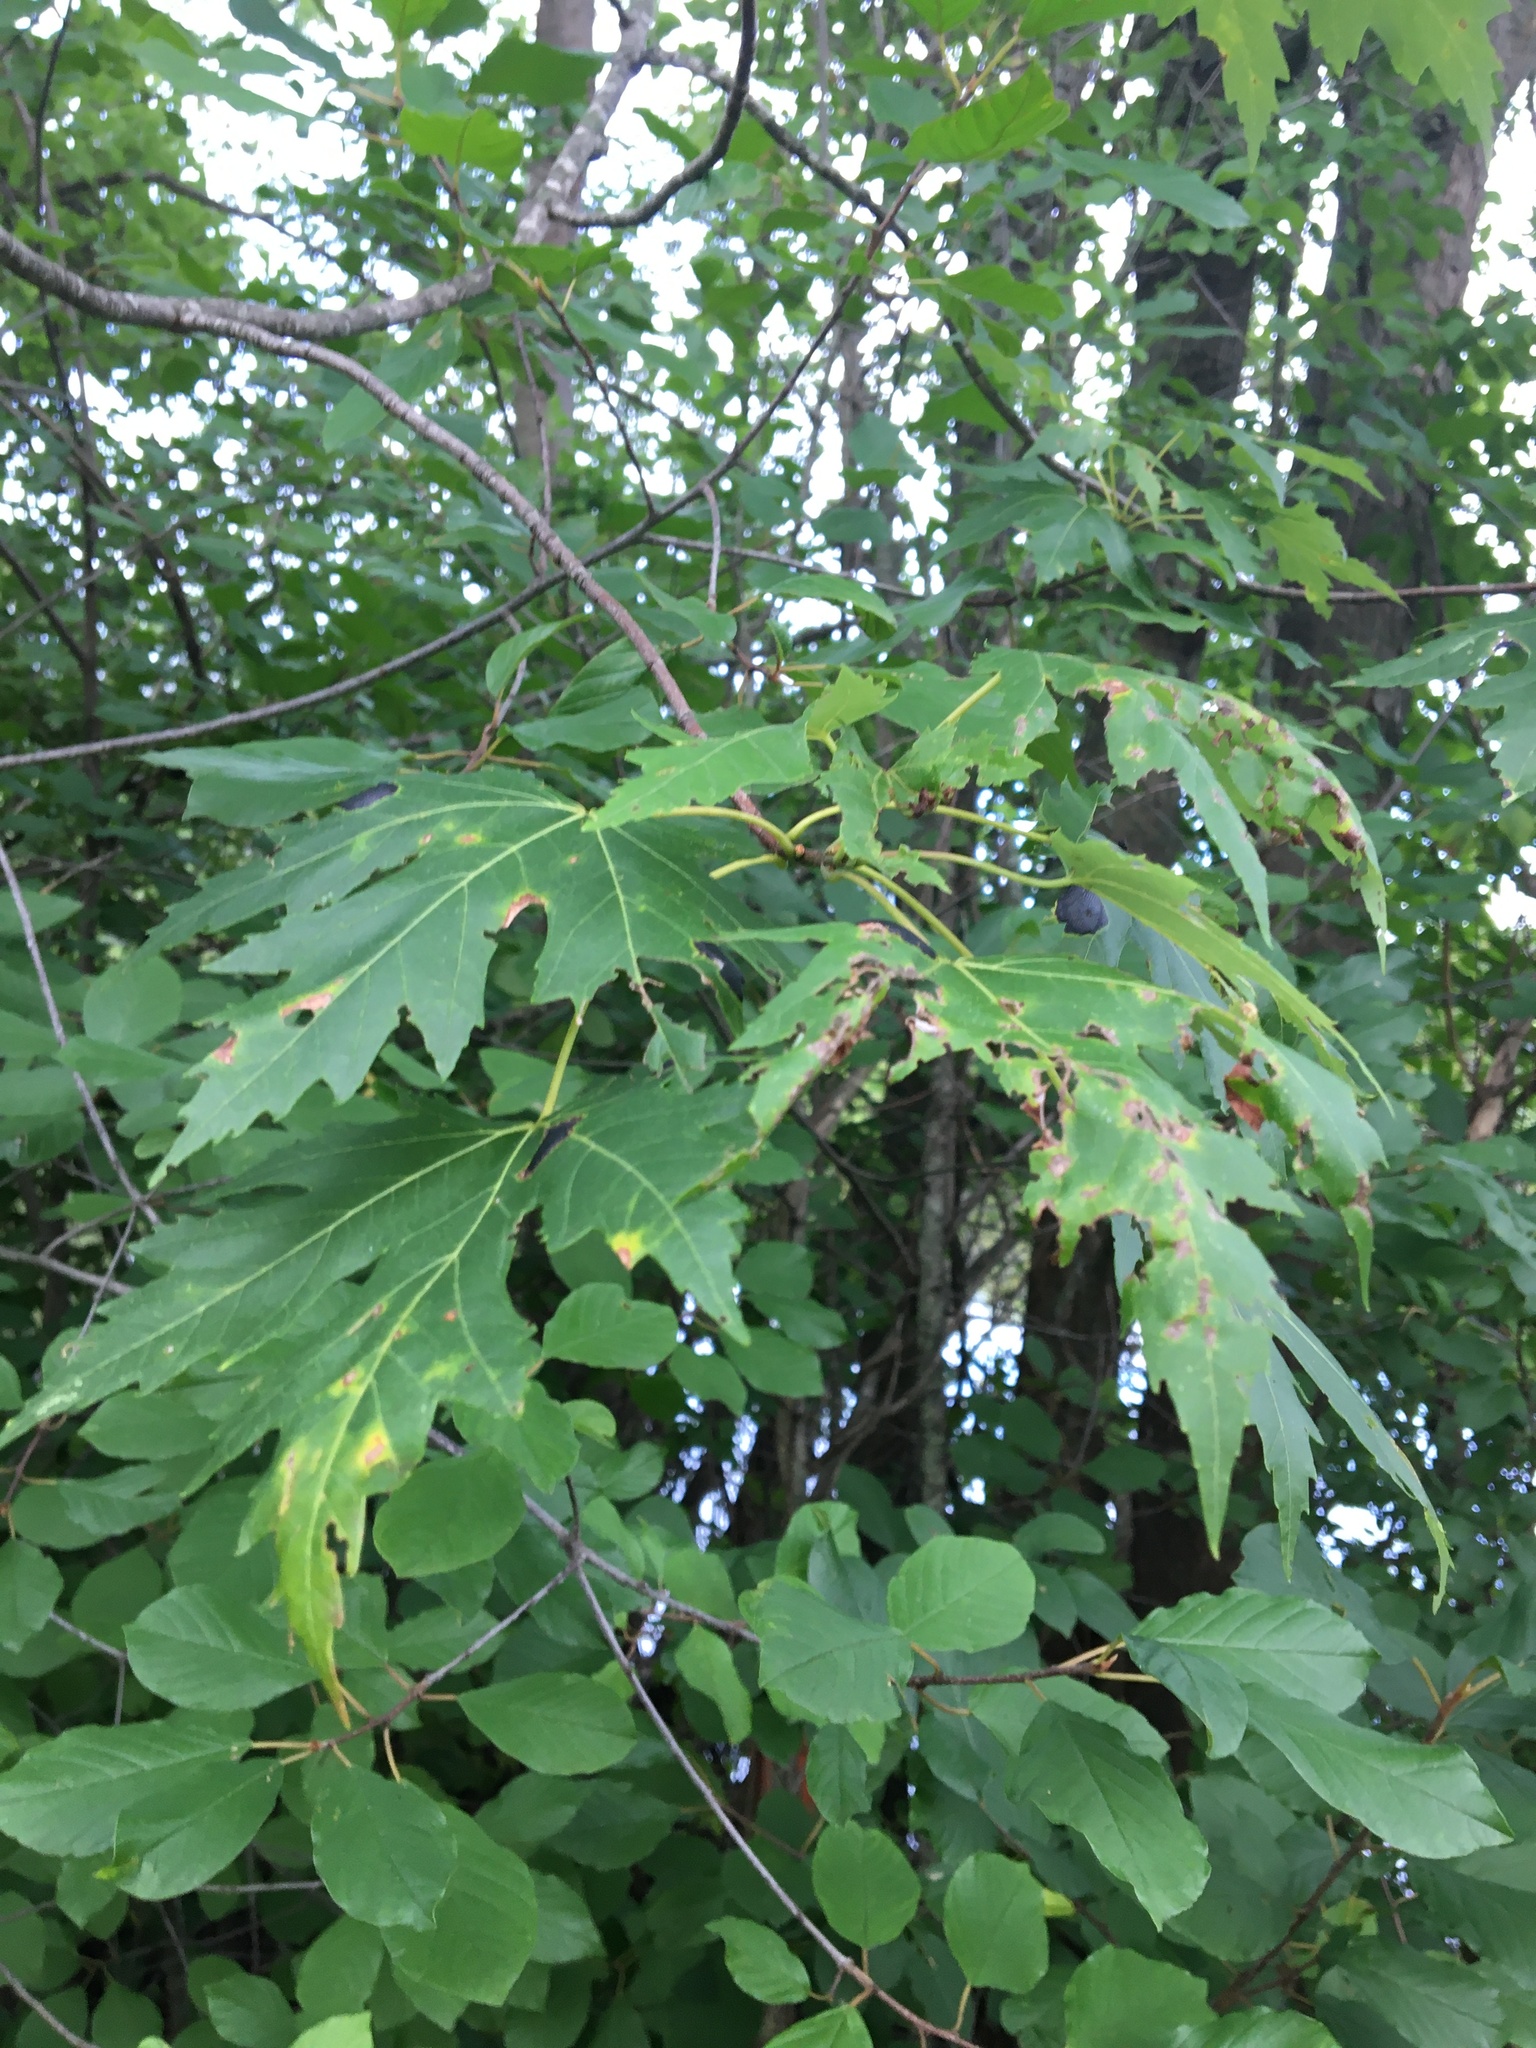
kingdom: Plantae
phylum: Tracheophyta
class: Magnoliopsida
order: Sapindales
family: Sapindaceae
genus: Acer
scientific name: Acer saccharinum
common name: Silver maple
